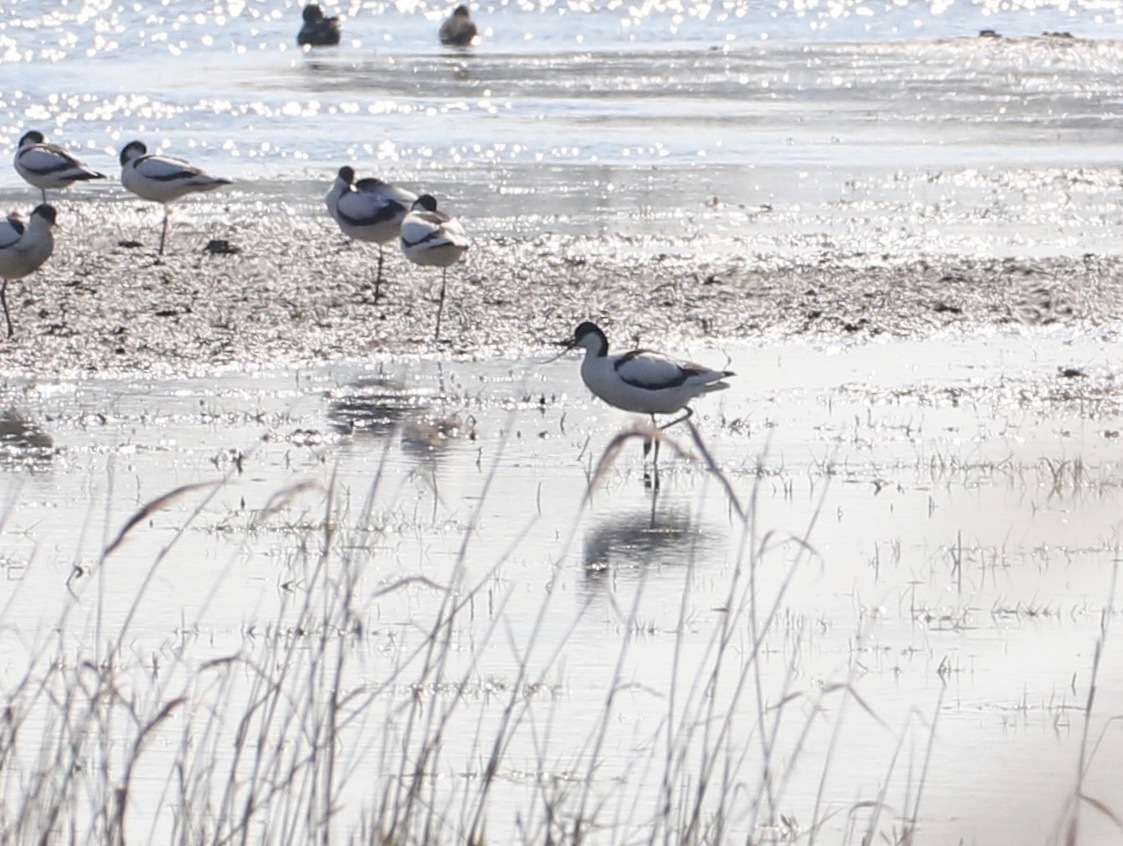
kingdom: Animalia
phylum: Chordata
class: Aves
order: Charadriiformes
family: Recurvirostridae
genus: Recurvirostra
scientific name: Recurvirostra avosetta
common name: Pied avocet
